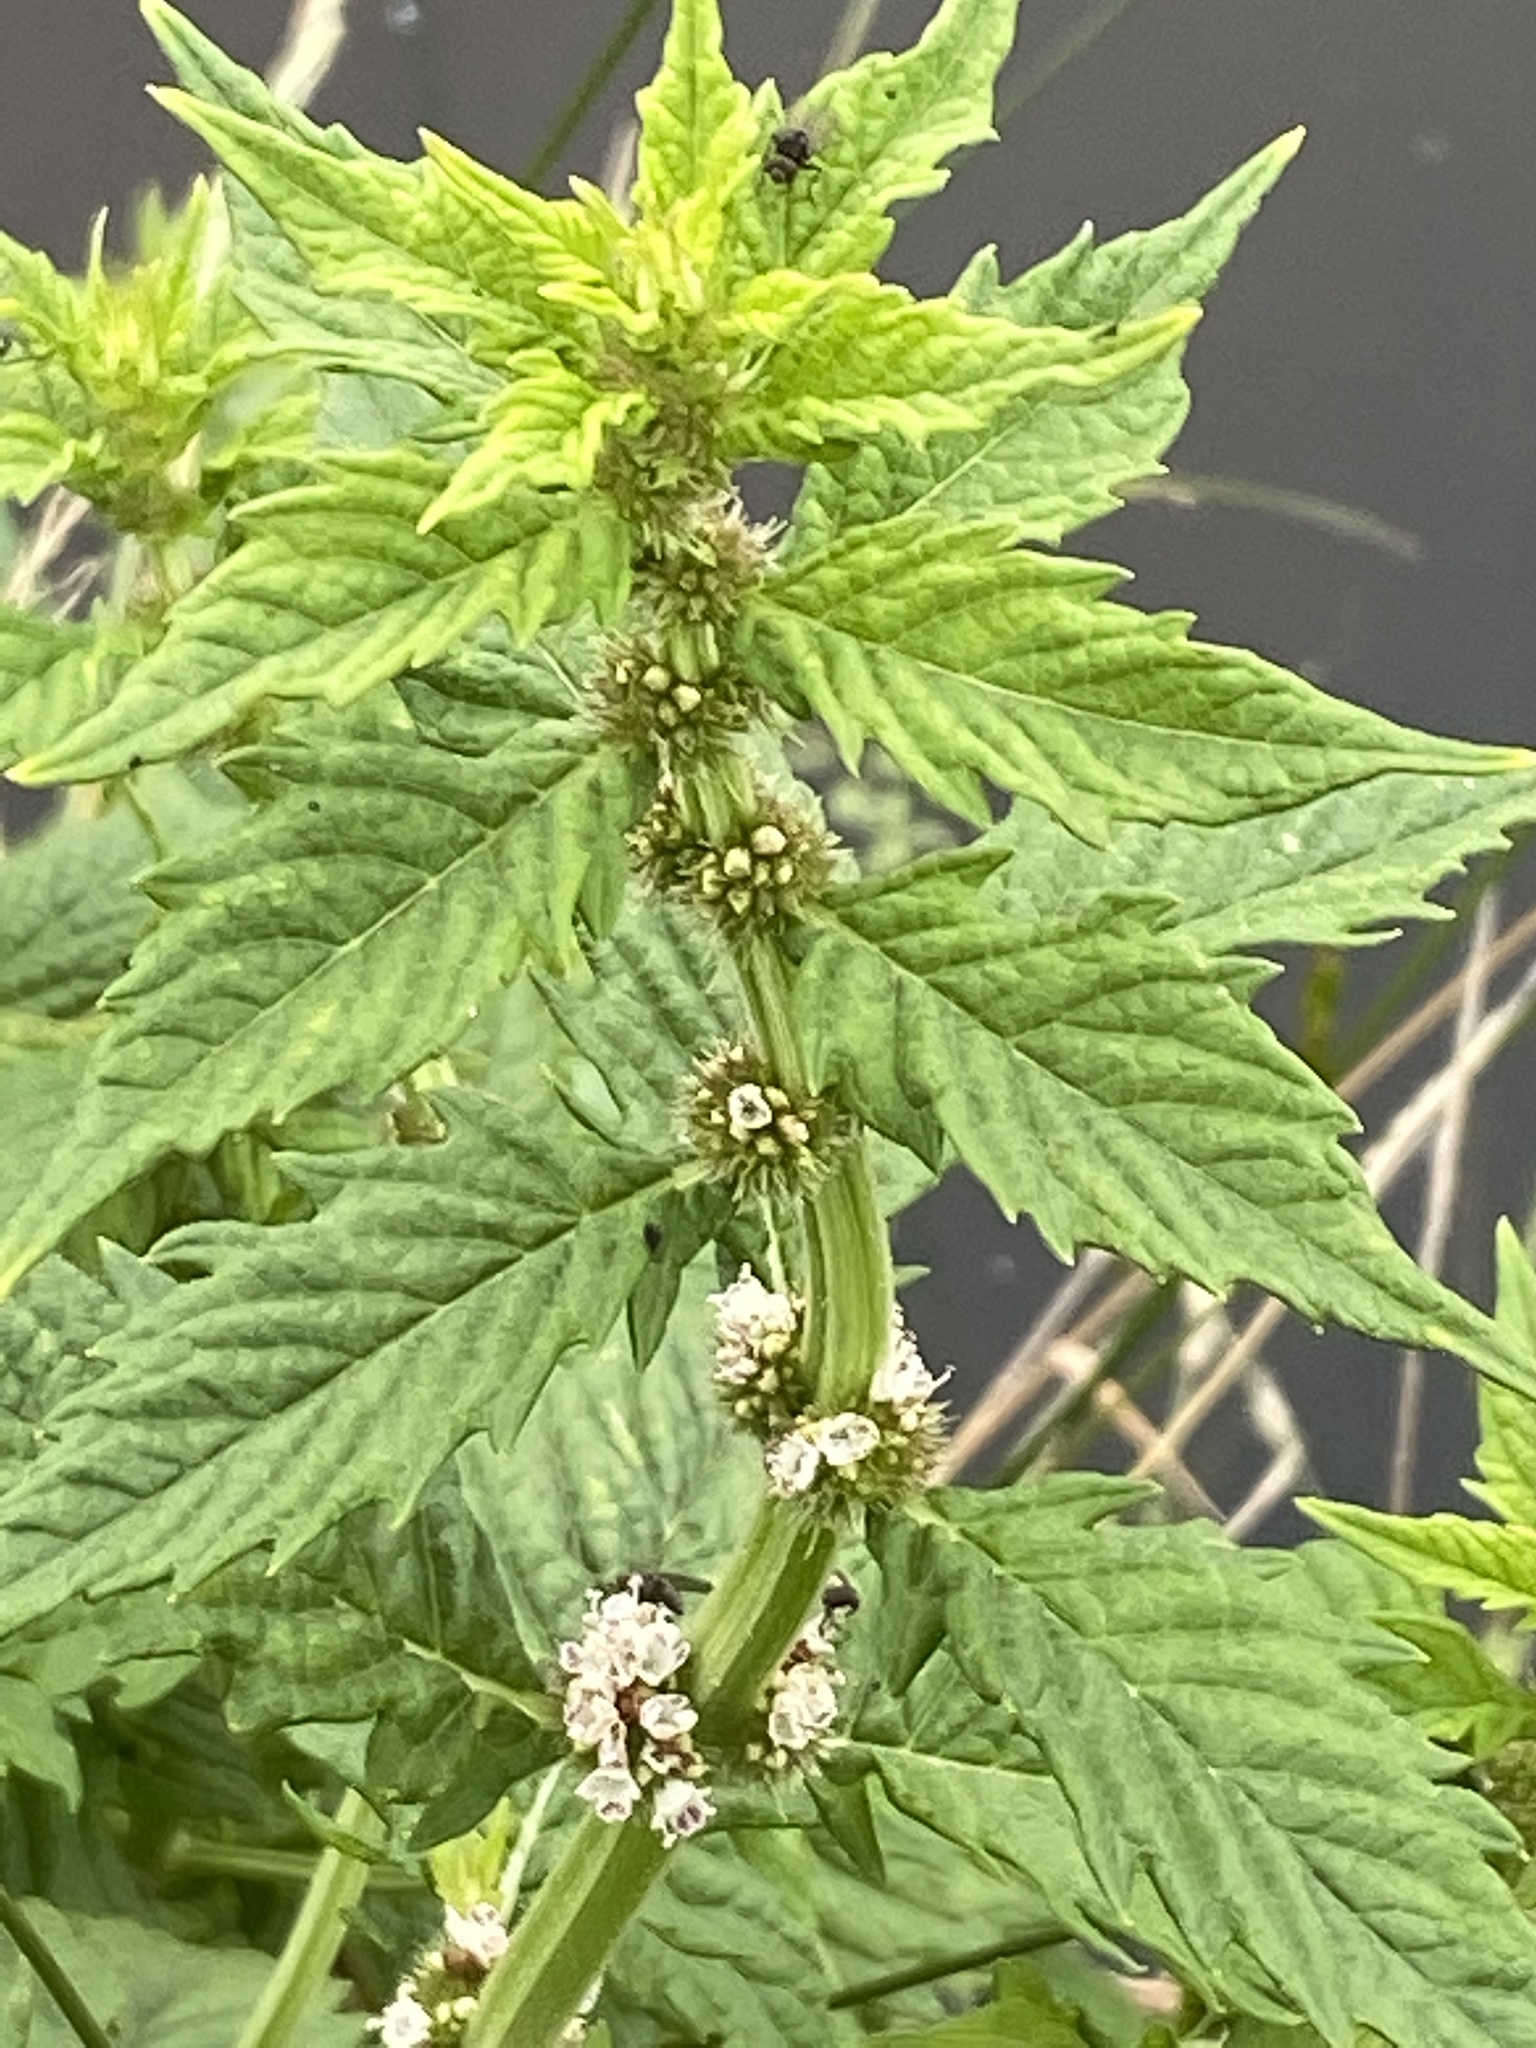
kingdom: Plantae
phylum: Tracheophyta
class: Magnoliopsida
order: Lamiales
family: Lamiaceae
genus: Lycopus
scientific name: Lycopus europaeus
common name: European bugleweed
